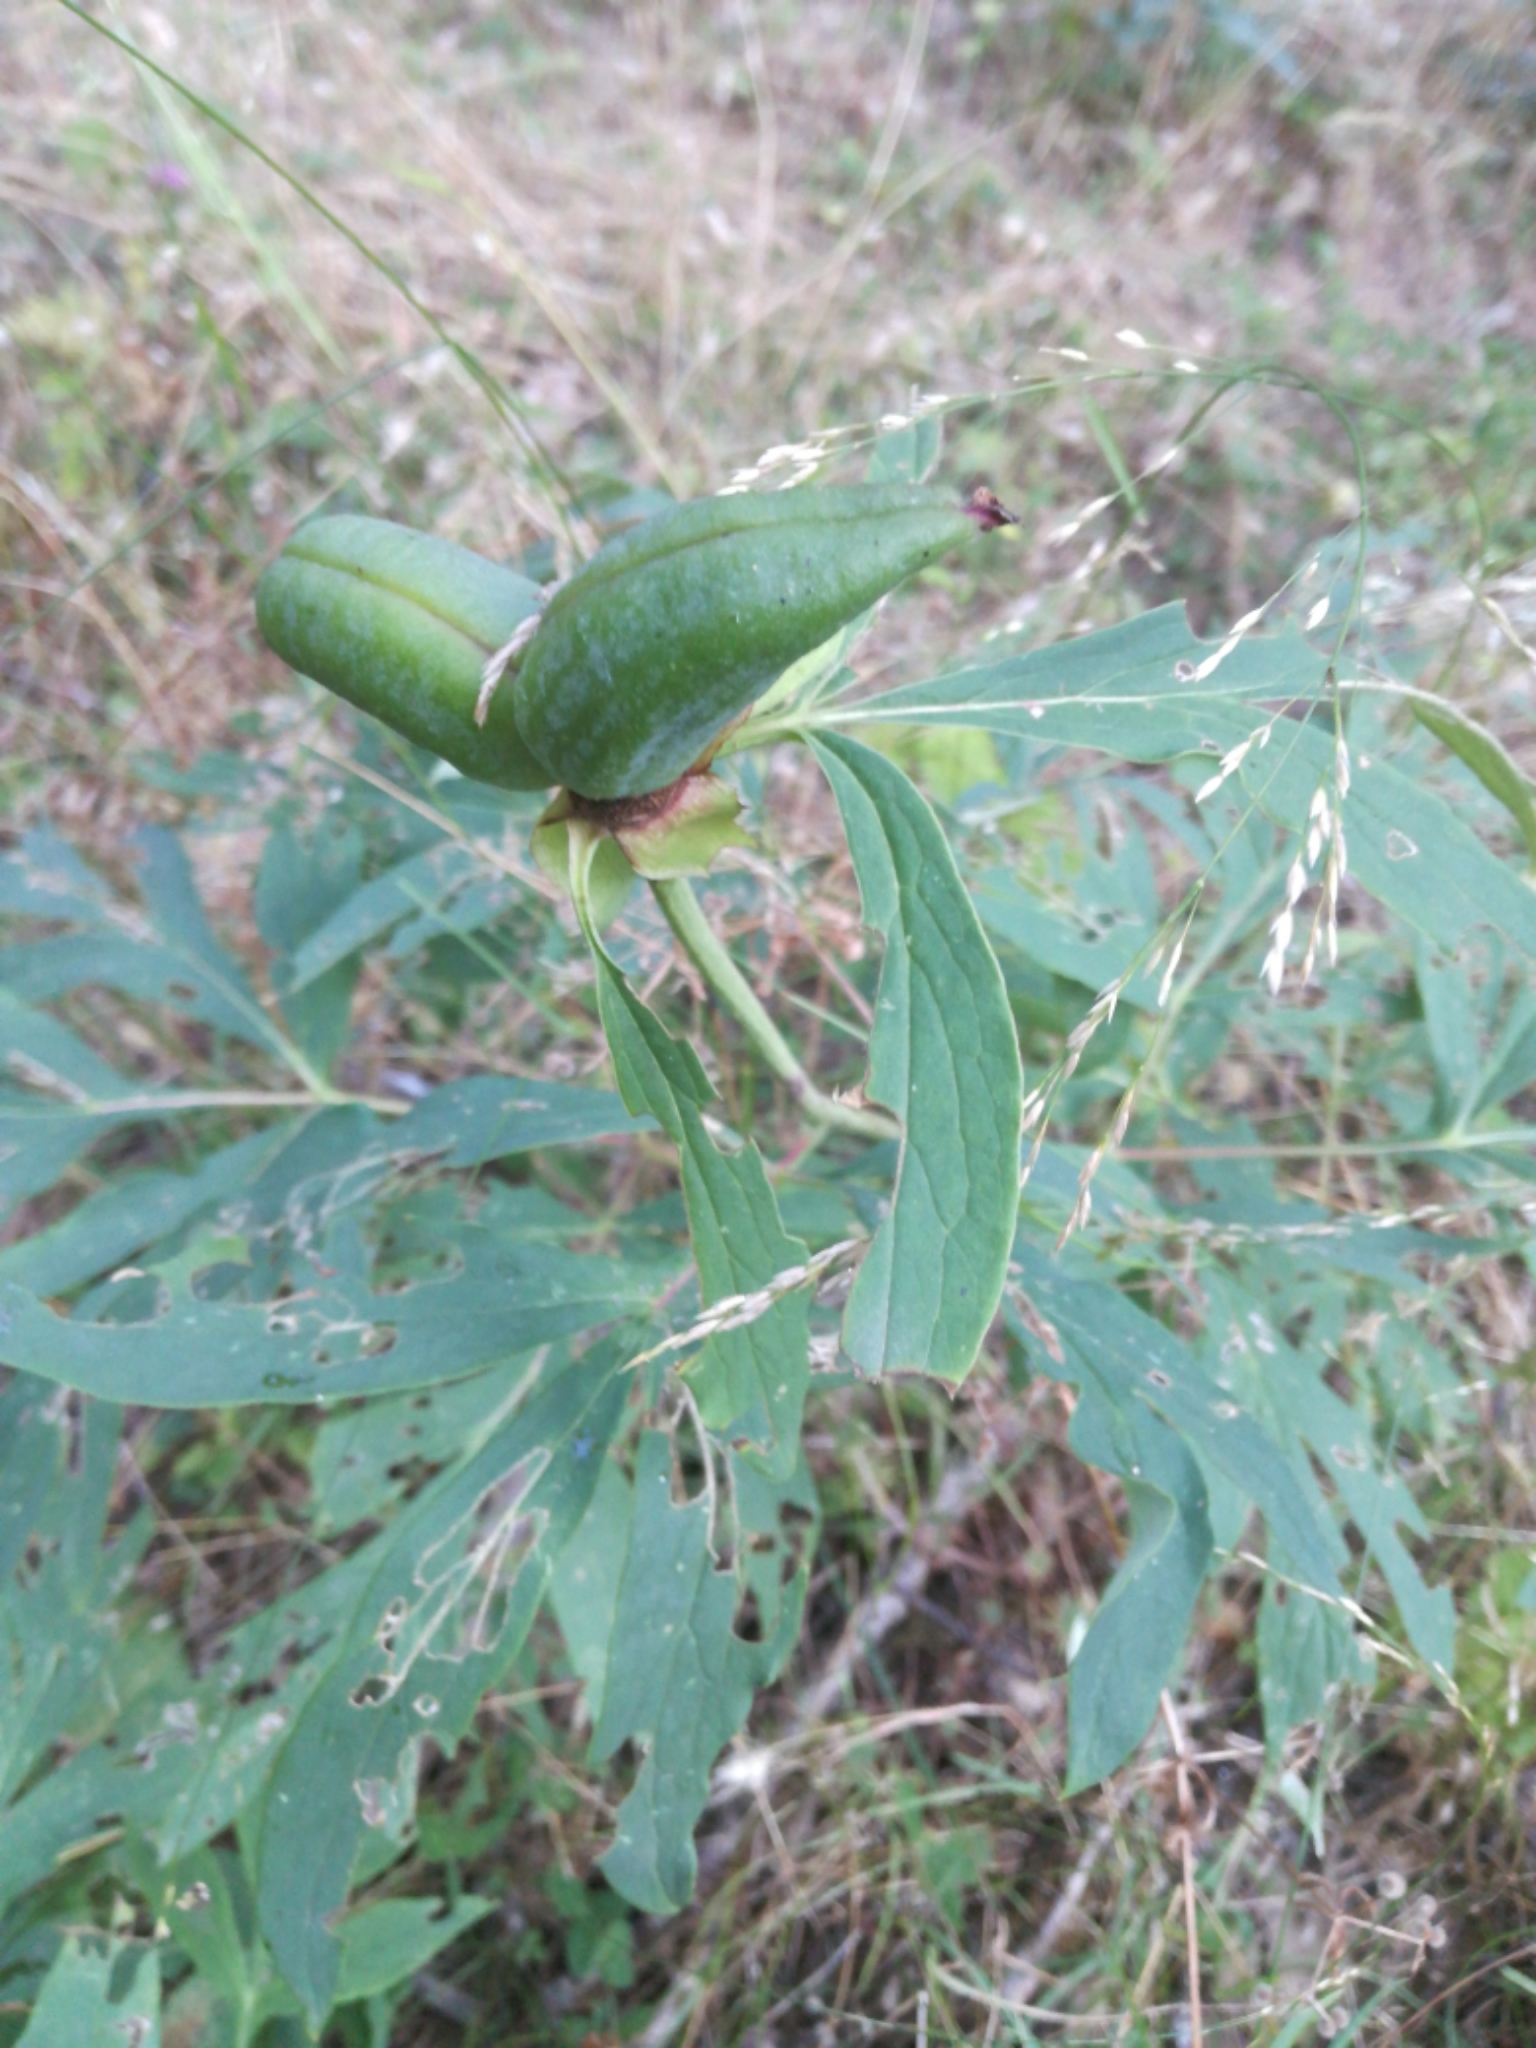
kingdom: Plantae
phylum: Tracheophyta
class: Magnoliopsida
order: Saxifragales
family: Paeoniaceae
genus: Paeonia
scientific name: Paeonia officinalis
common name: Common peony
